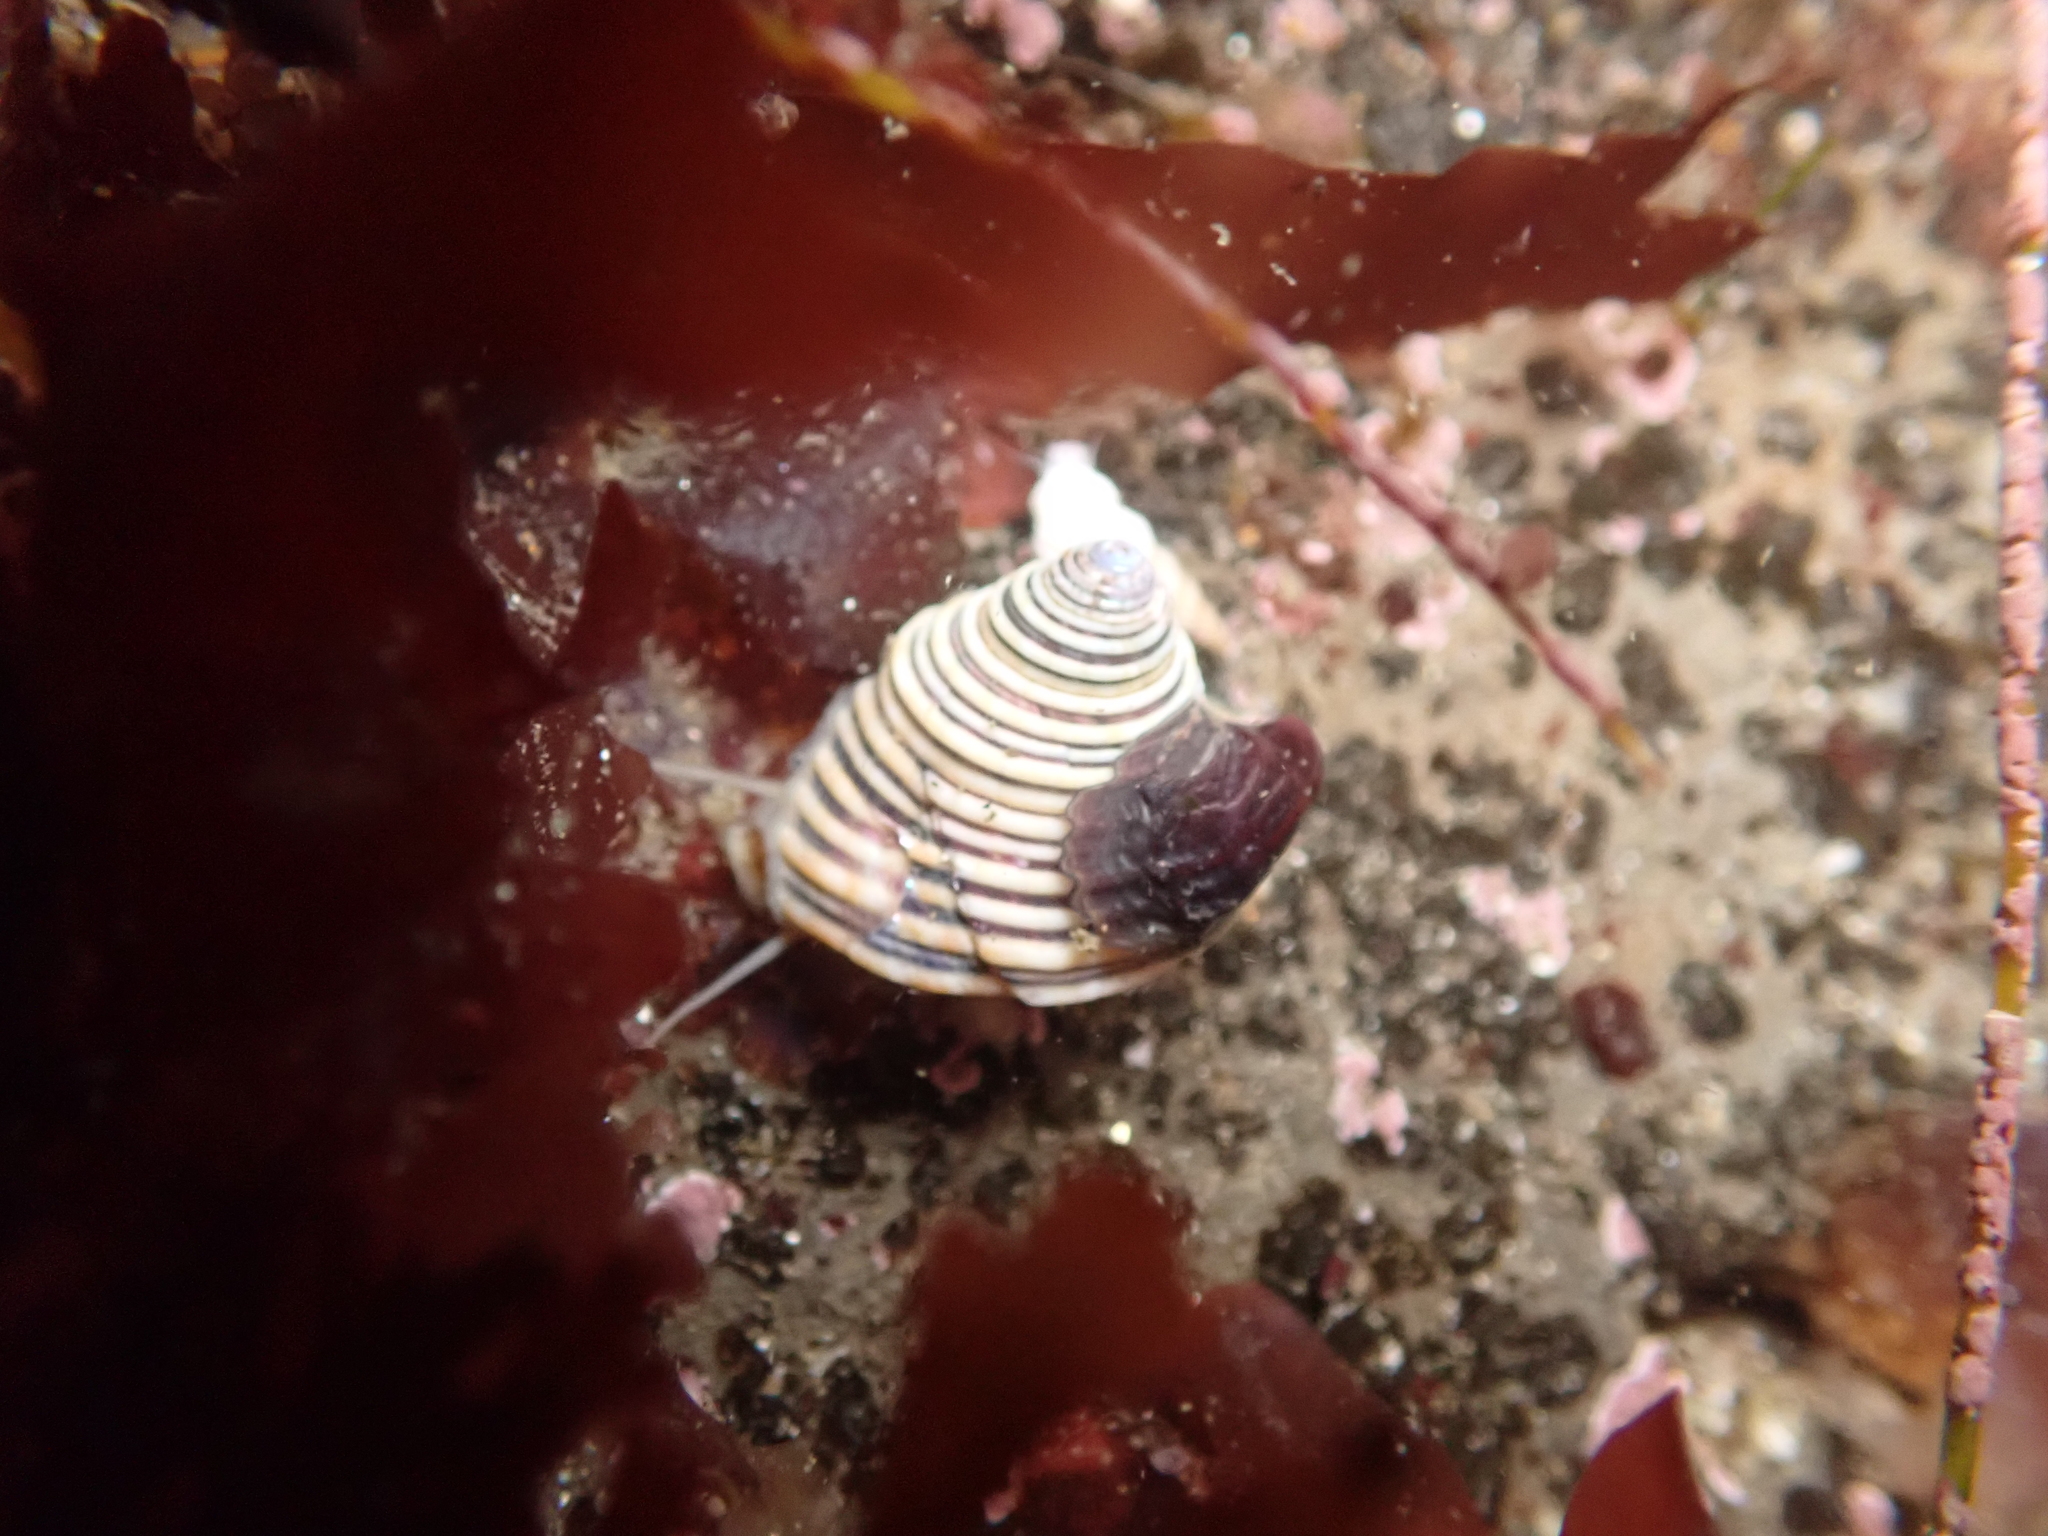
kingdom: Animalia
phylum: Mollusca
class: Gastropoda
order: Trochida
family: Calliostomatidae
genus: Calliostoma
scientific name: Calliostoma canaliculatum
